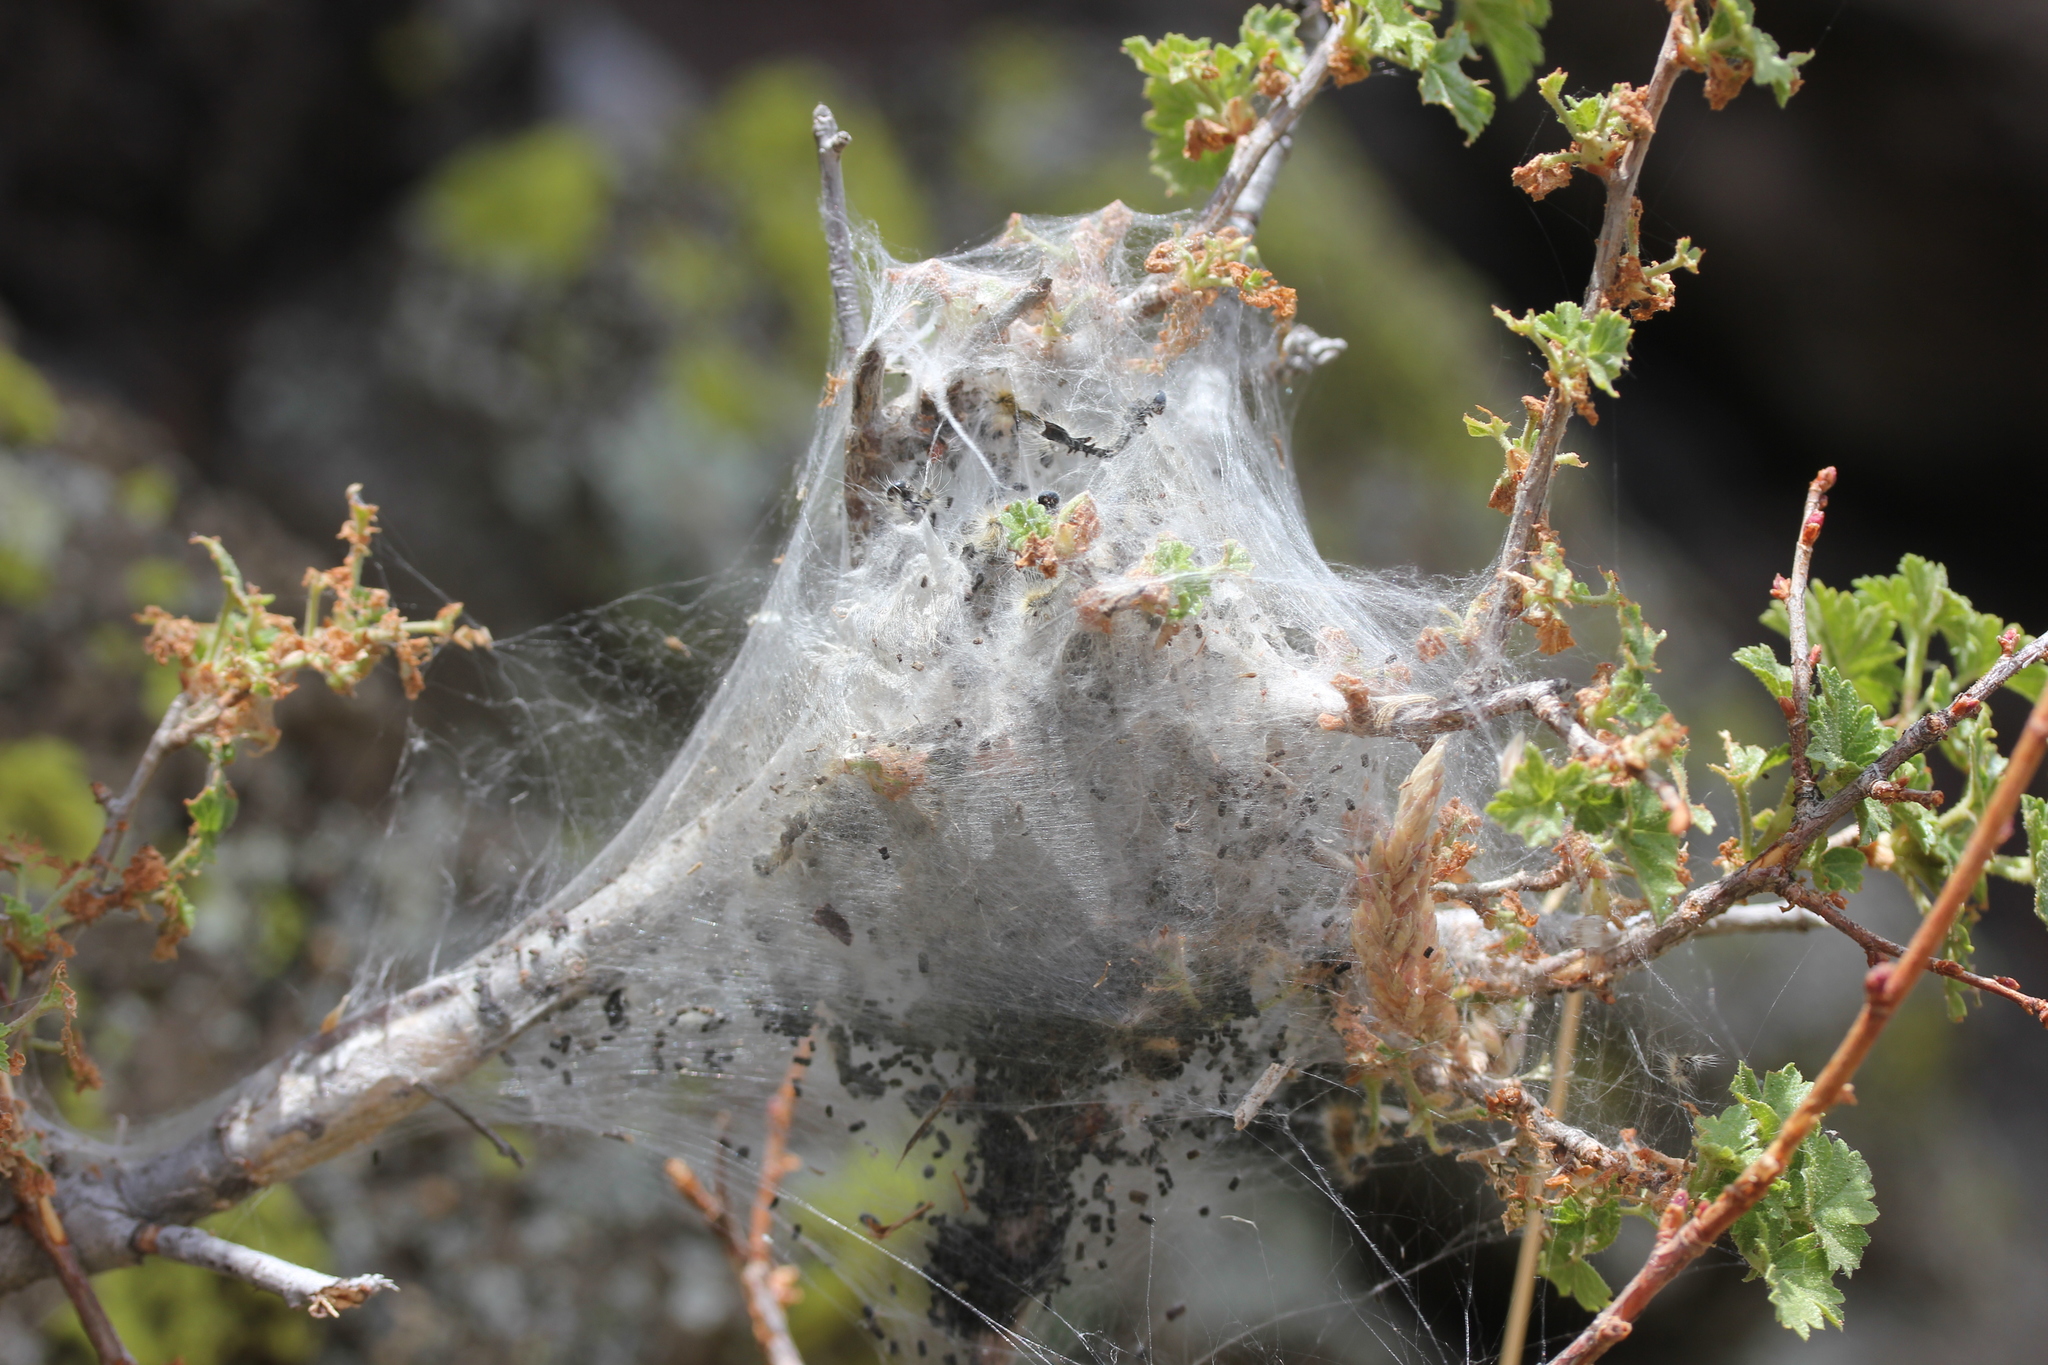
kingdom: Animalia
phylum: Arthropoda
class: Insecta
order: Lepidoptera
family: Lasiocampidae
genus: Malacosoma
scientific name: Malacosoma incurva
